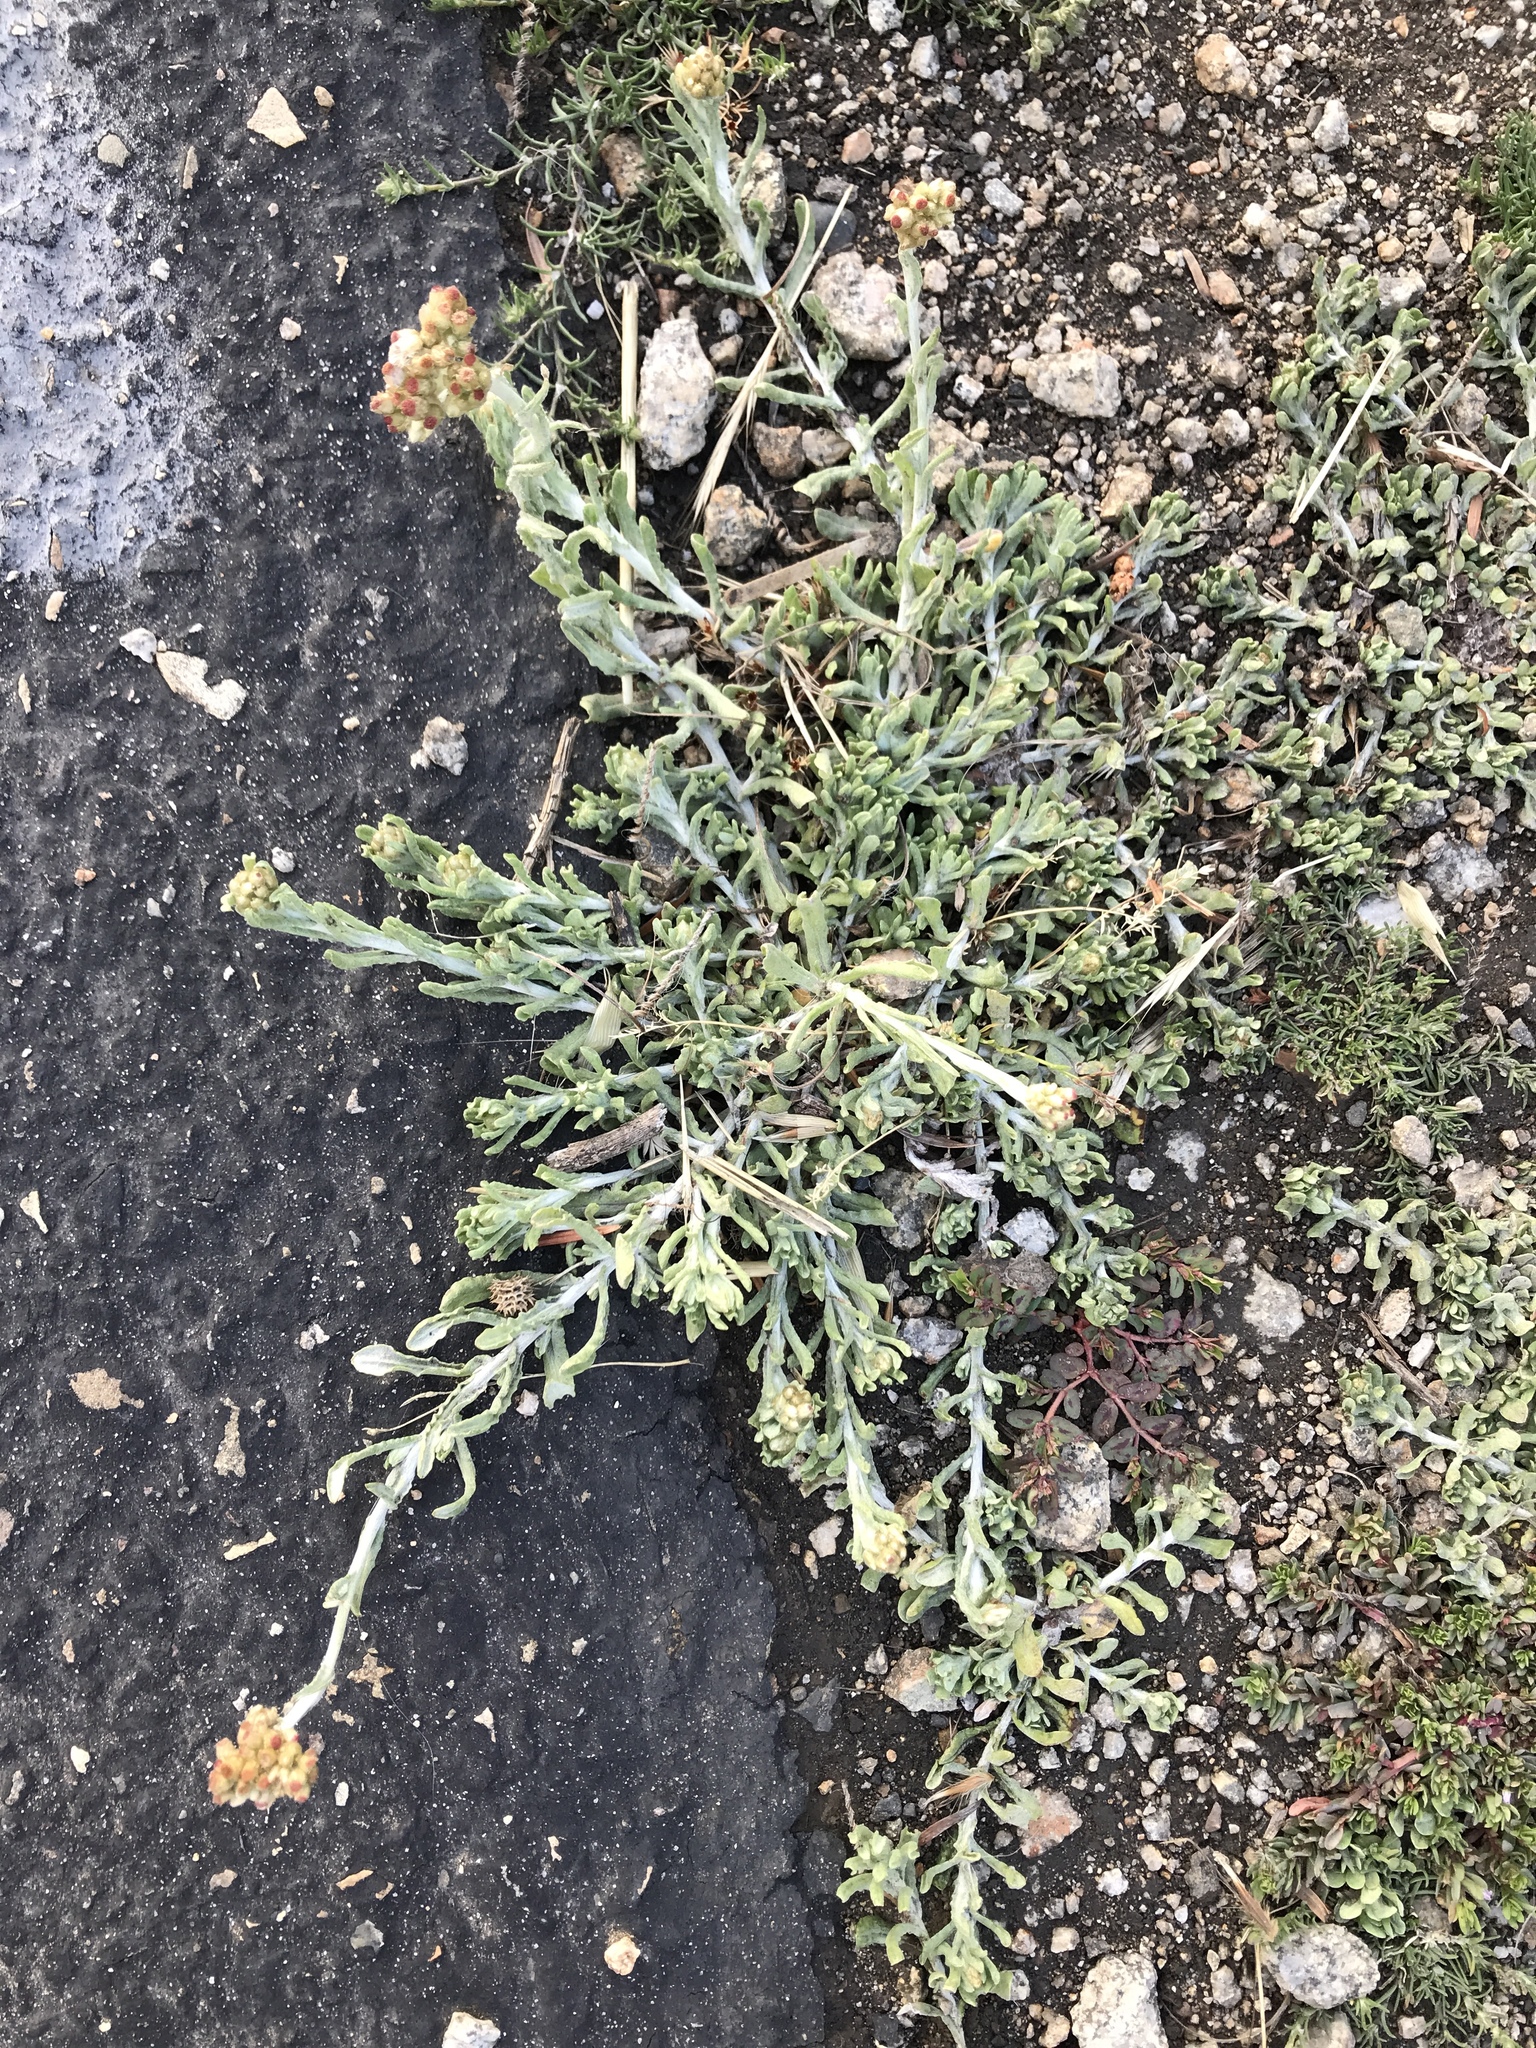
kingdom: Plantae
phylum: Tracheophyta
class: Magnoliopsida
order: Asterales
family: Asteraceae
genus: Helichrysum
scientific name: Helichrysum luteoalbum
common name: Daisy
